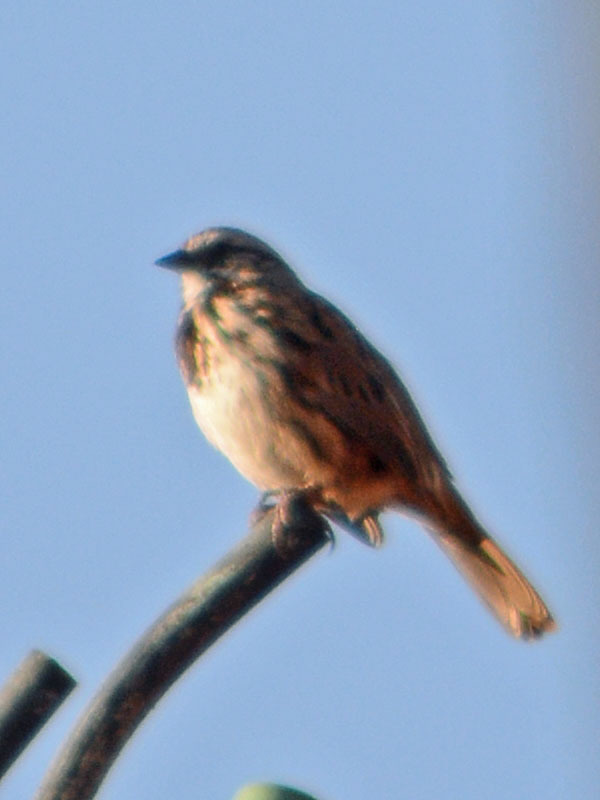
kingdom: Animalia
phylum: Chordata
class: Aves
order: Passeriformes
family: Passerellidae
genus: Melospiza
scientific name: Melospiza melodia
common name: Song sparrow
